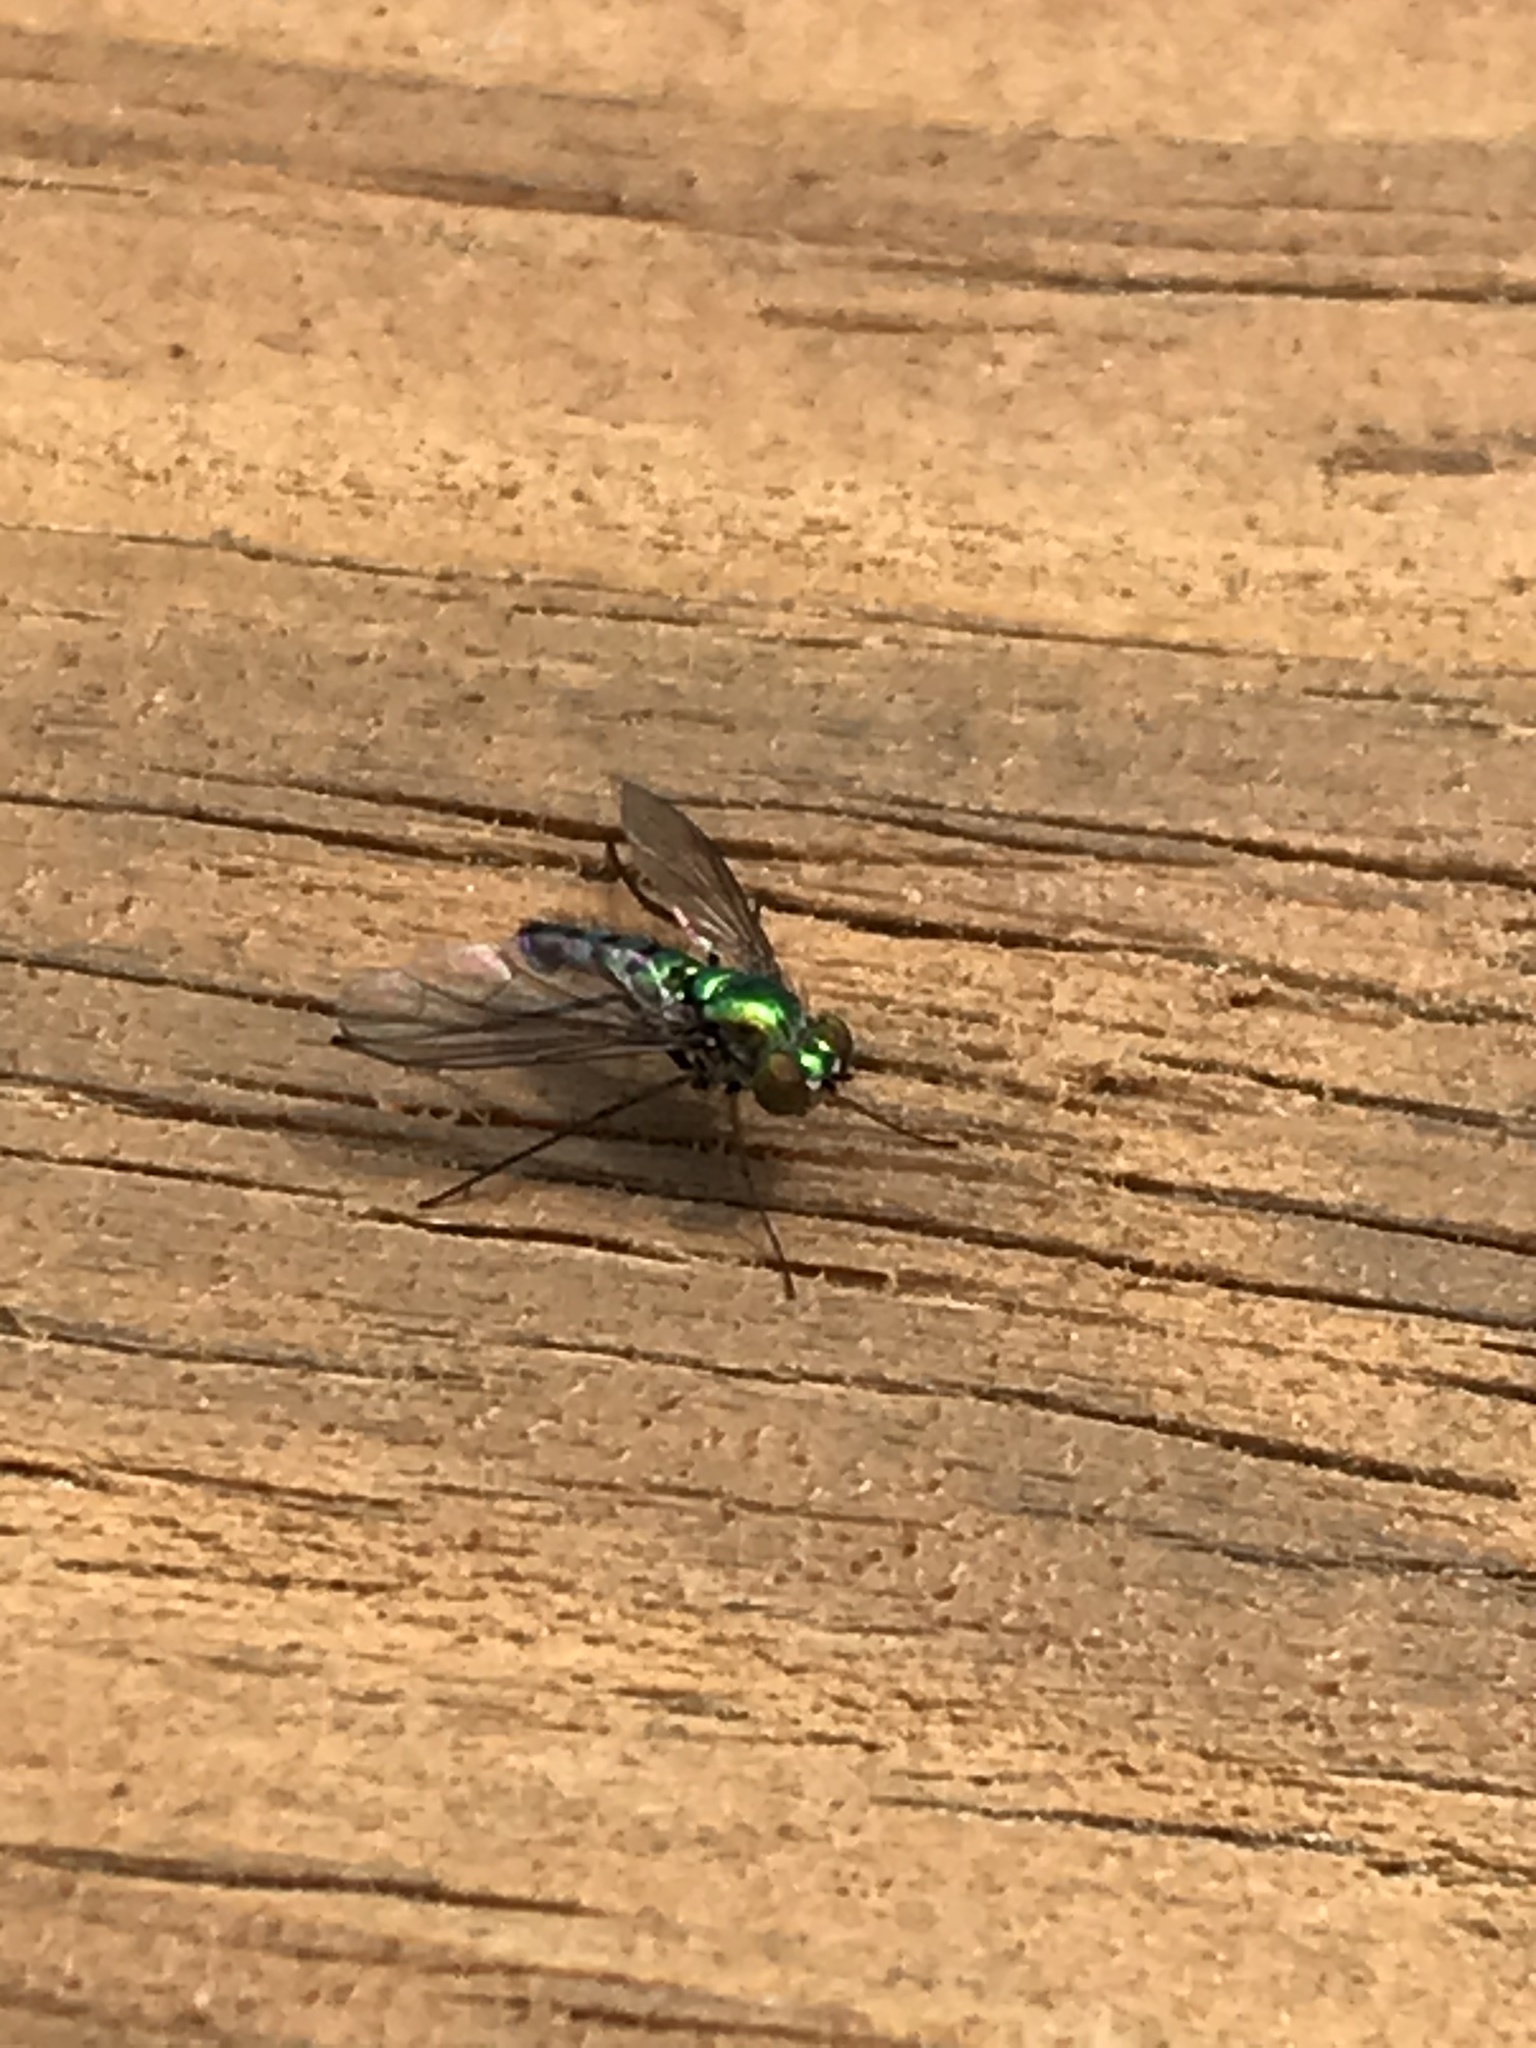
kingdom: Animalia
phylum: Arthropoda
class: Insecta
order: Diptera
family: Dolichopodidae
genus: Condylostylus
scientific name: Condylostylus longicornis
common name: Long-legged fly
